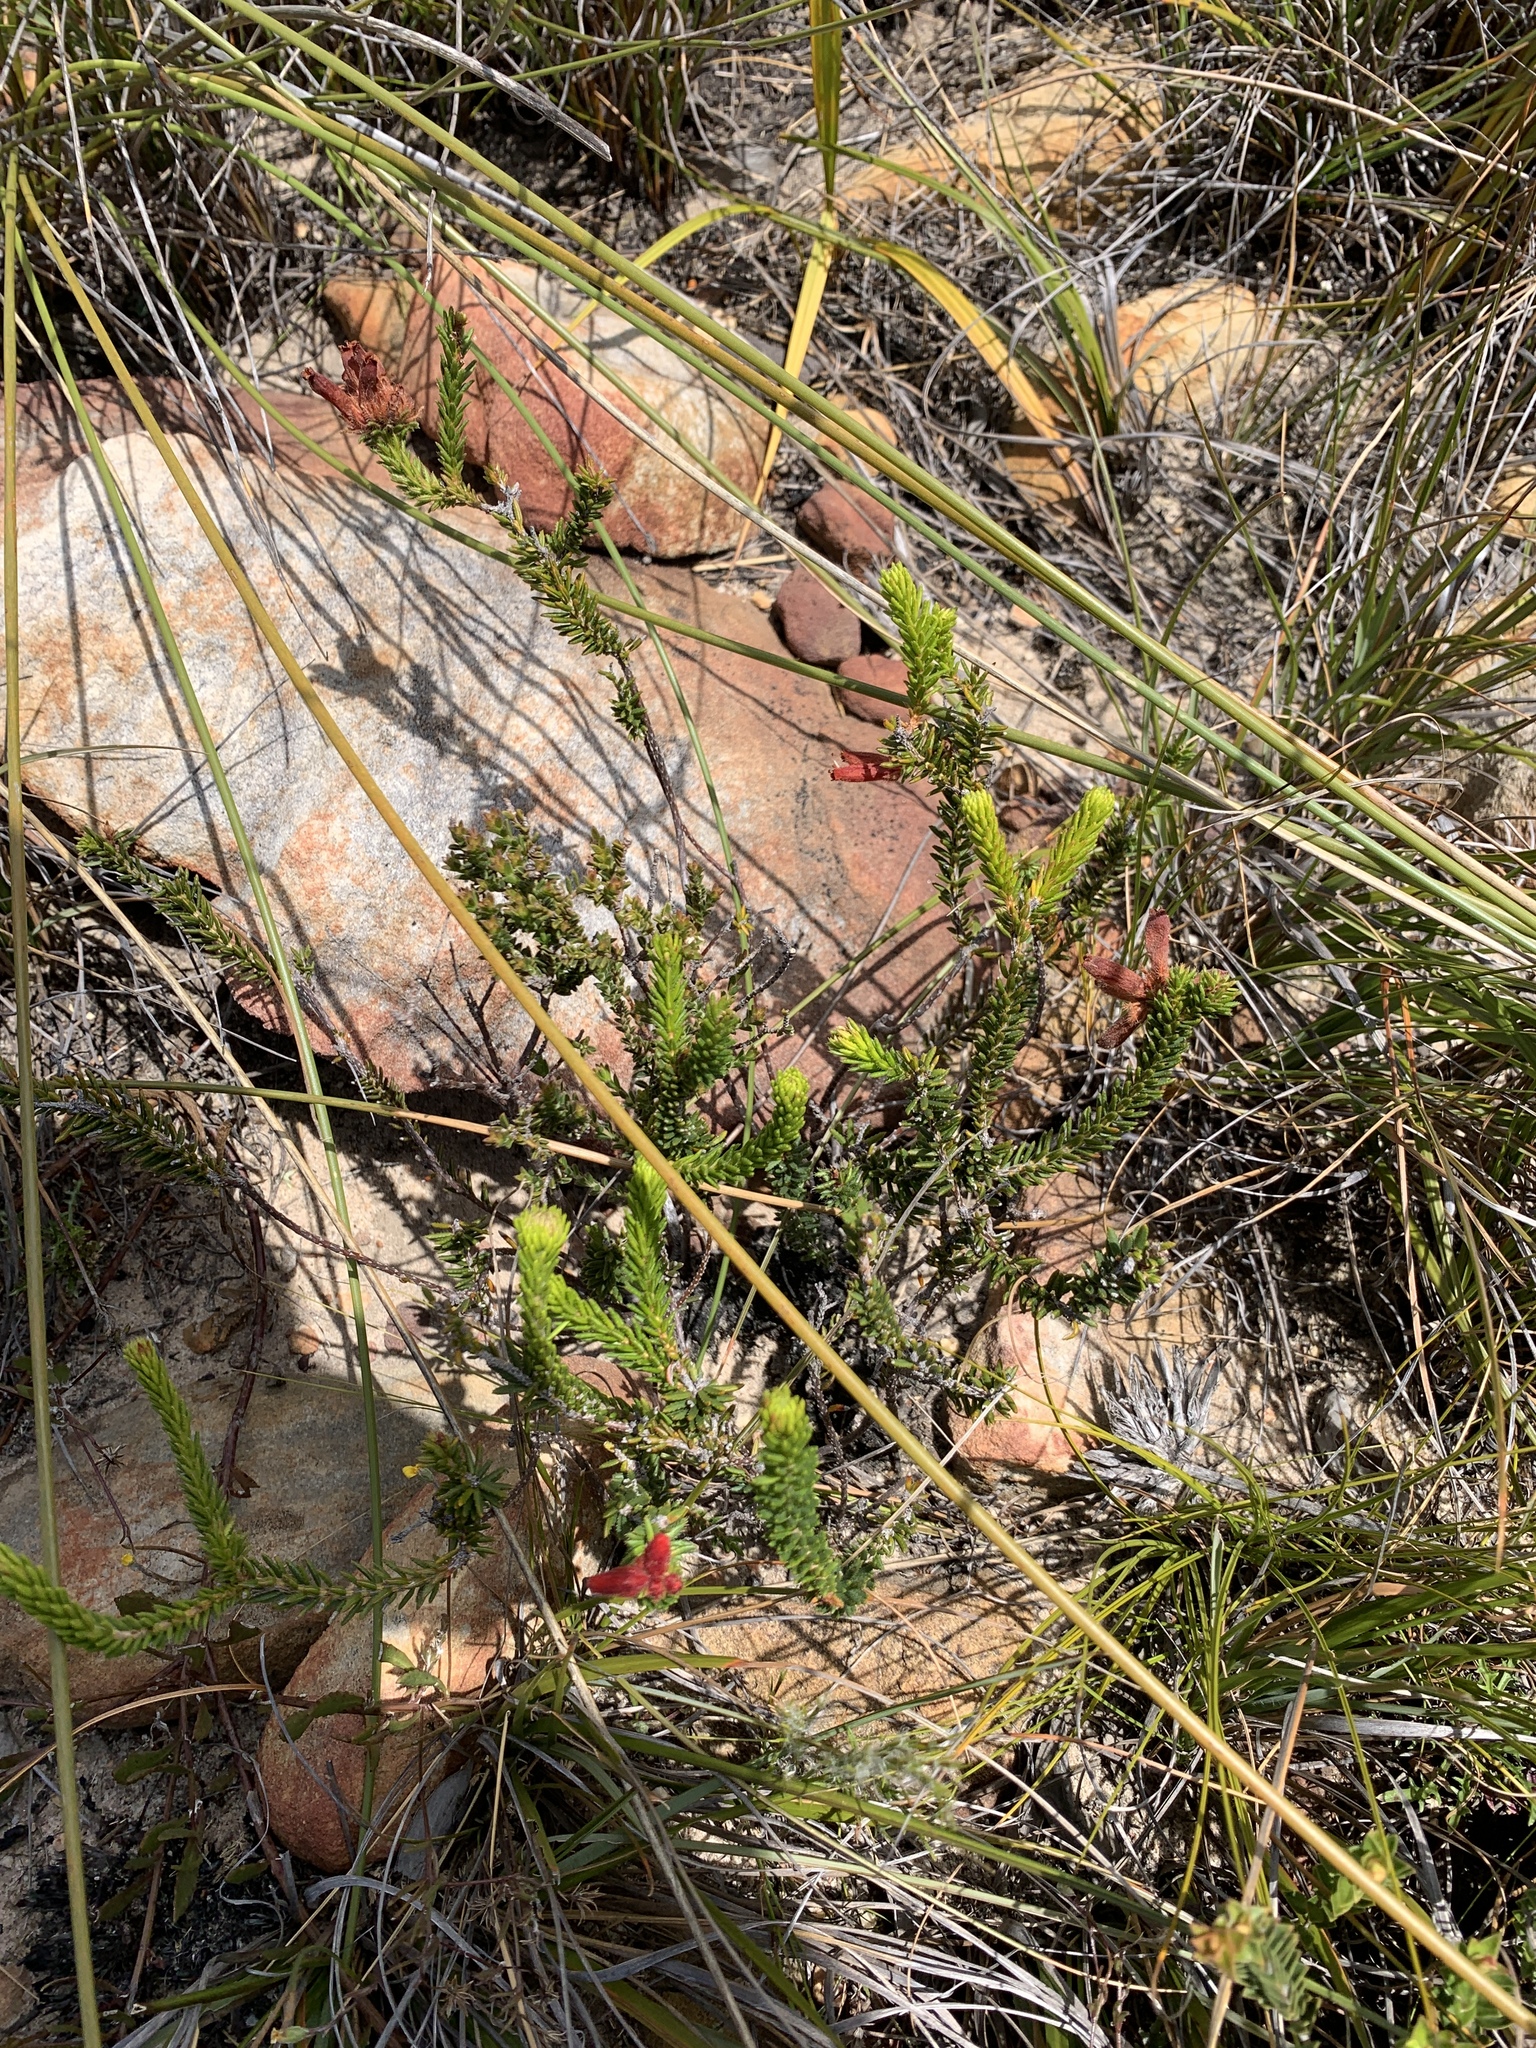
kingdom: Plantae
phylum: Tracheophyta
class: Magnoliopsida
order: Ericales
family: Ericaceae
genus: Erica
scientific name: Erica cerinthoides
